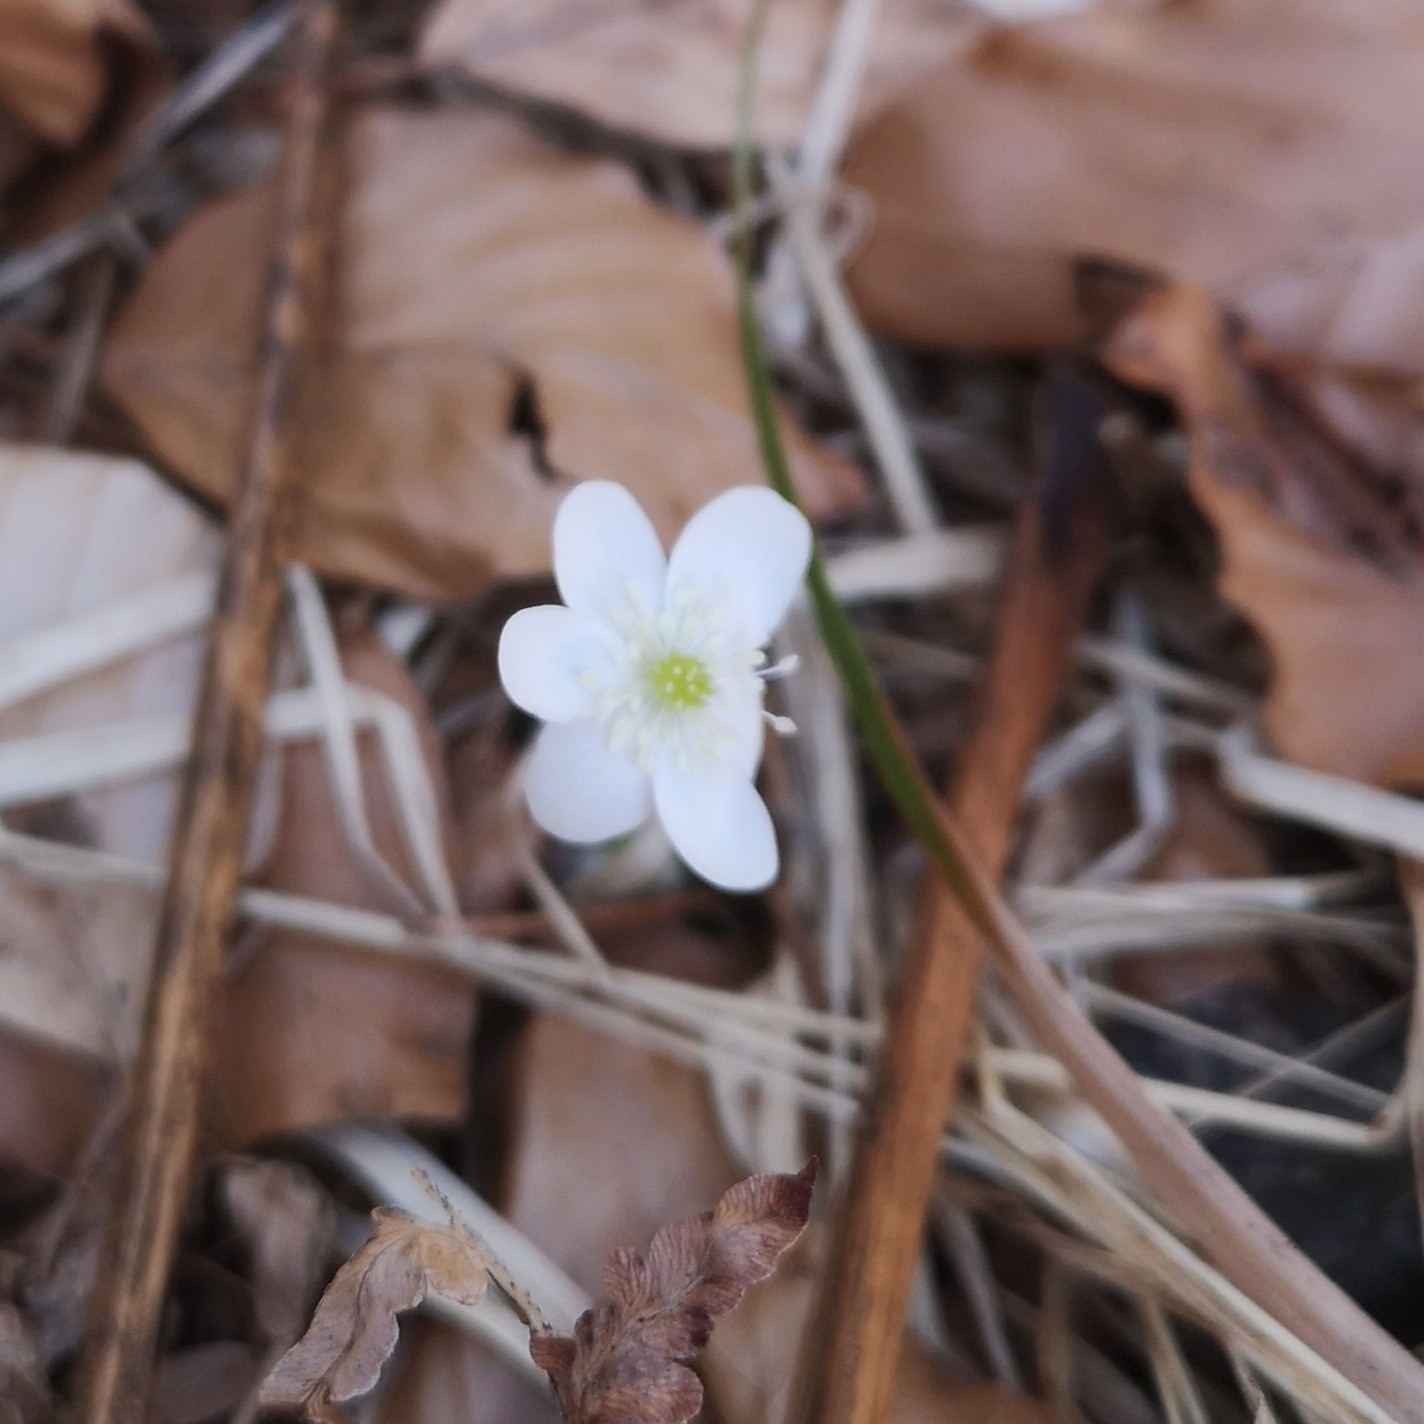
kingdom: Plantae
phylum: Tracheophyta
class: Magnoliopsida
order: Ranunculales
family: Ranunculaceae
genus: Hepatica
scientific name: Hepatica nobilis
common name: Liverleaf
